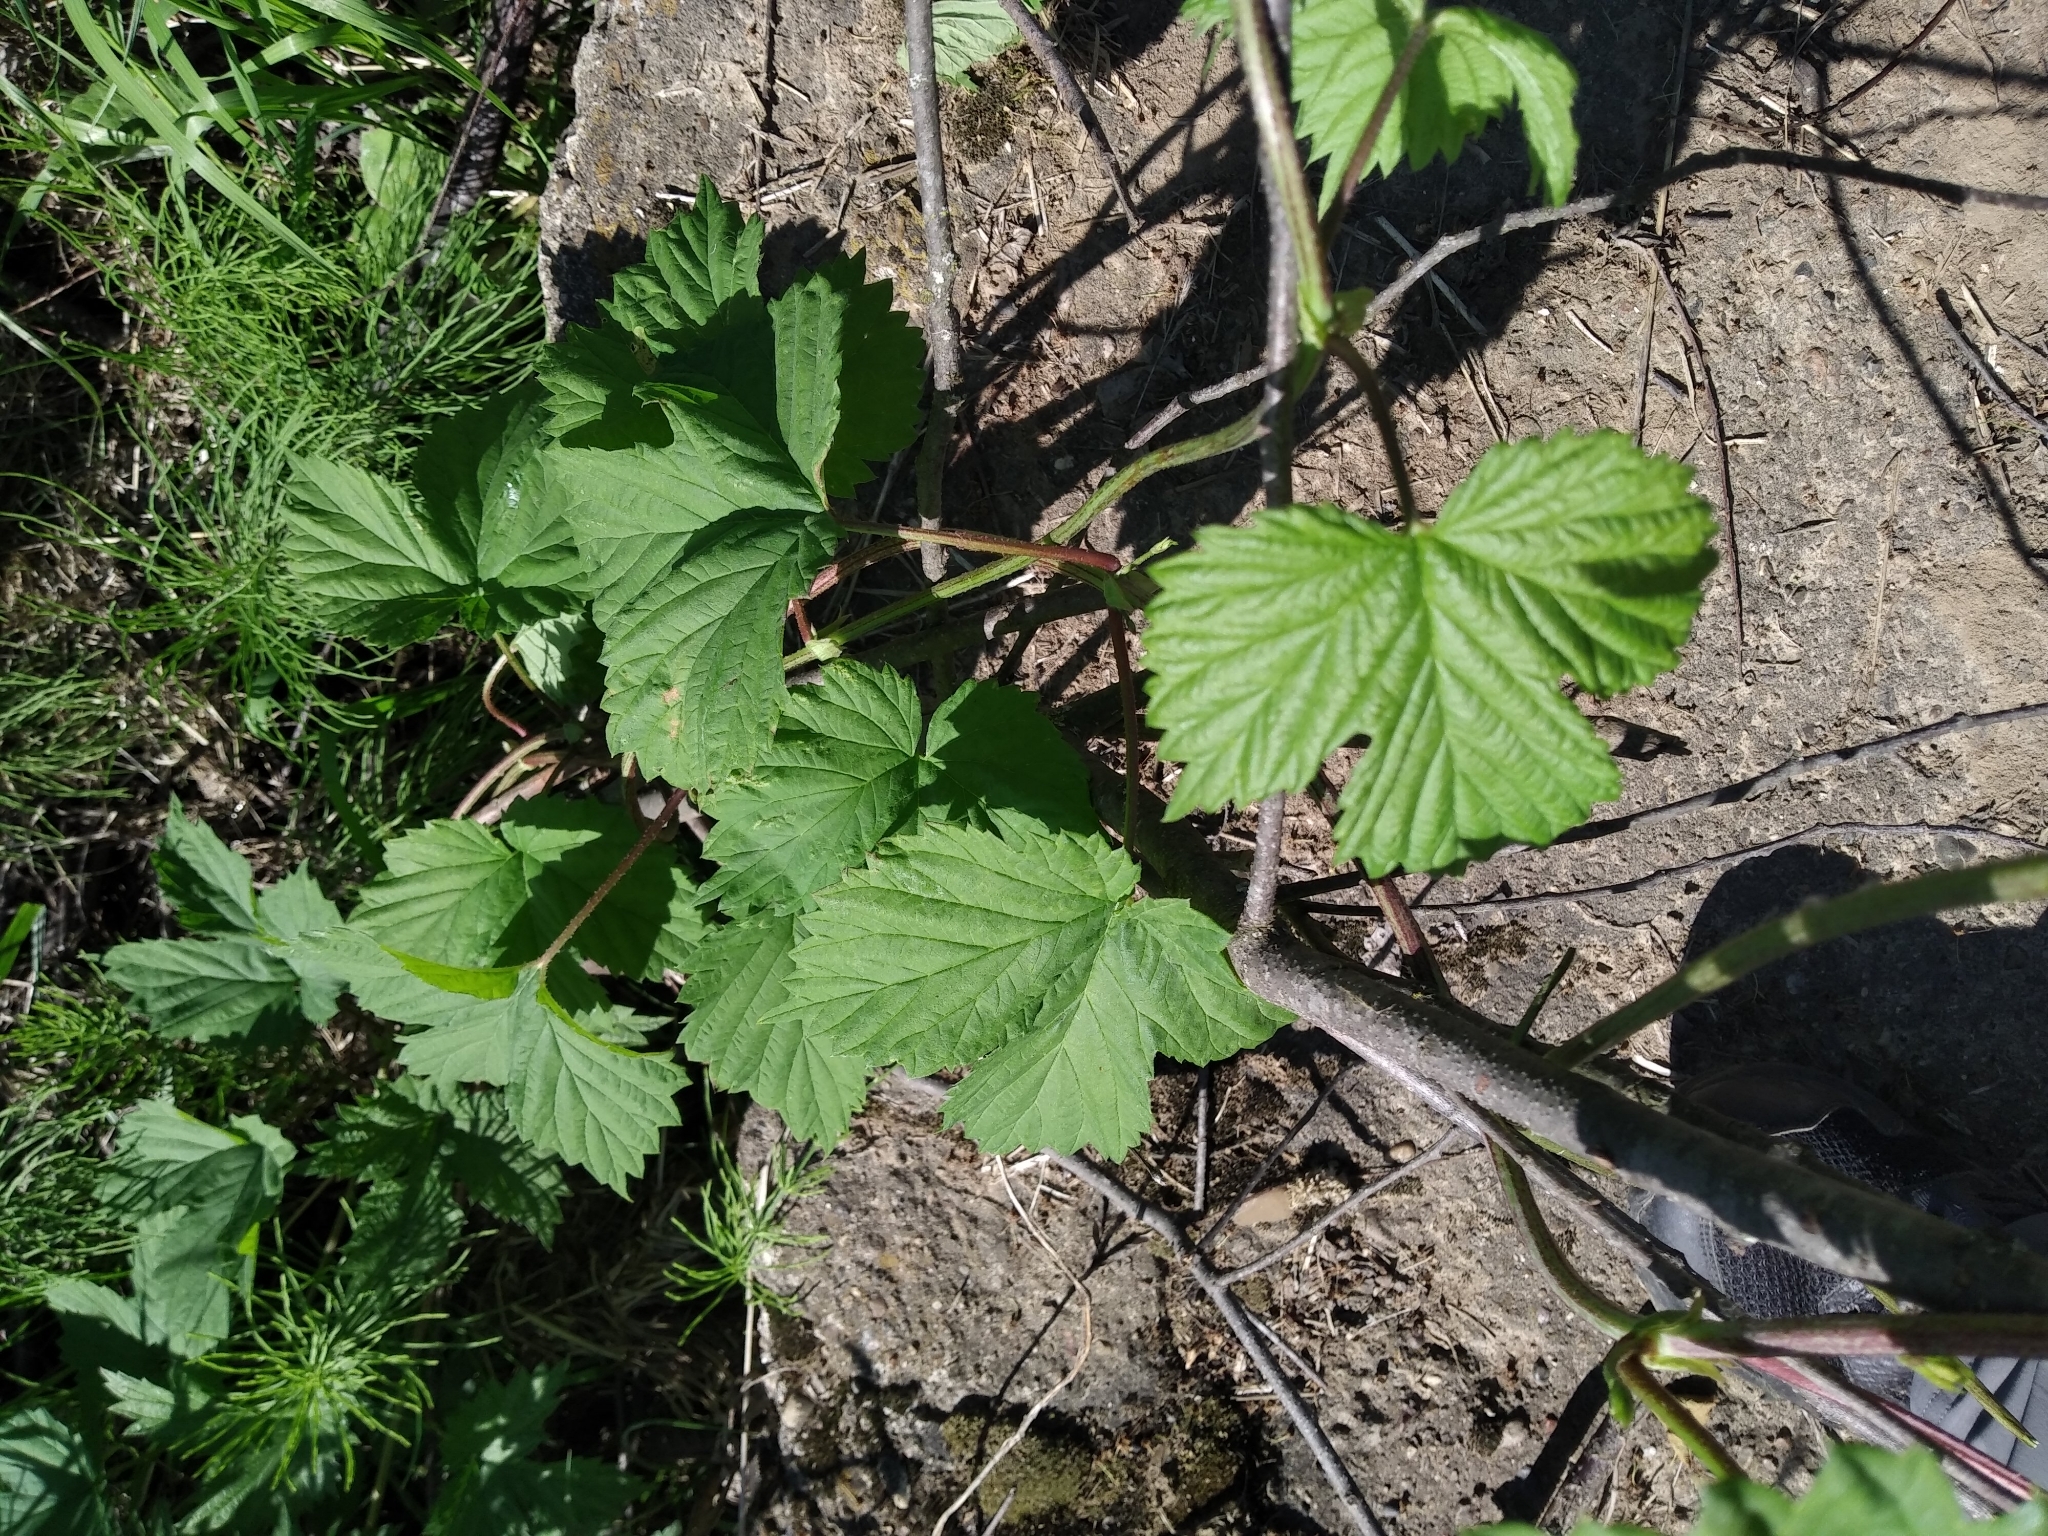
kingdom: Plantae
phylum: Tracheophyta
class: Magnoliopsida
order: Rosales
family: Cannabaceae
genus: Humulus
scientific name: Humulus lupulus
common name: Hop
